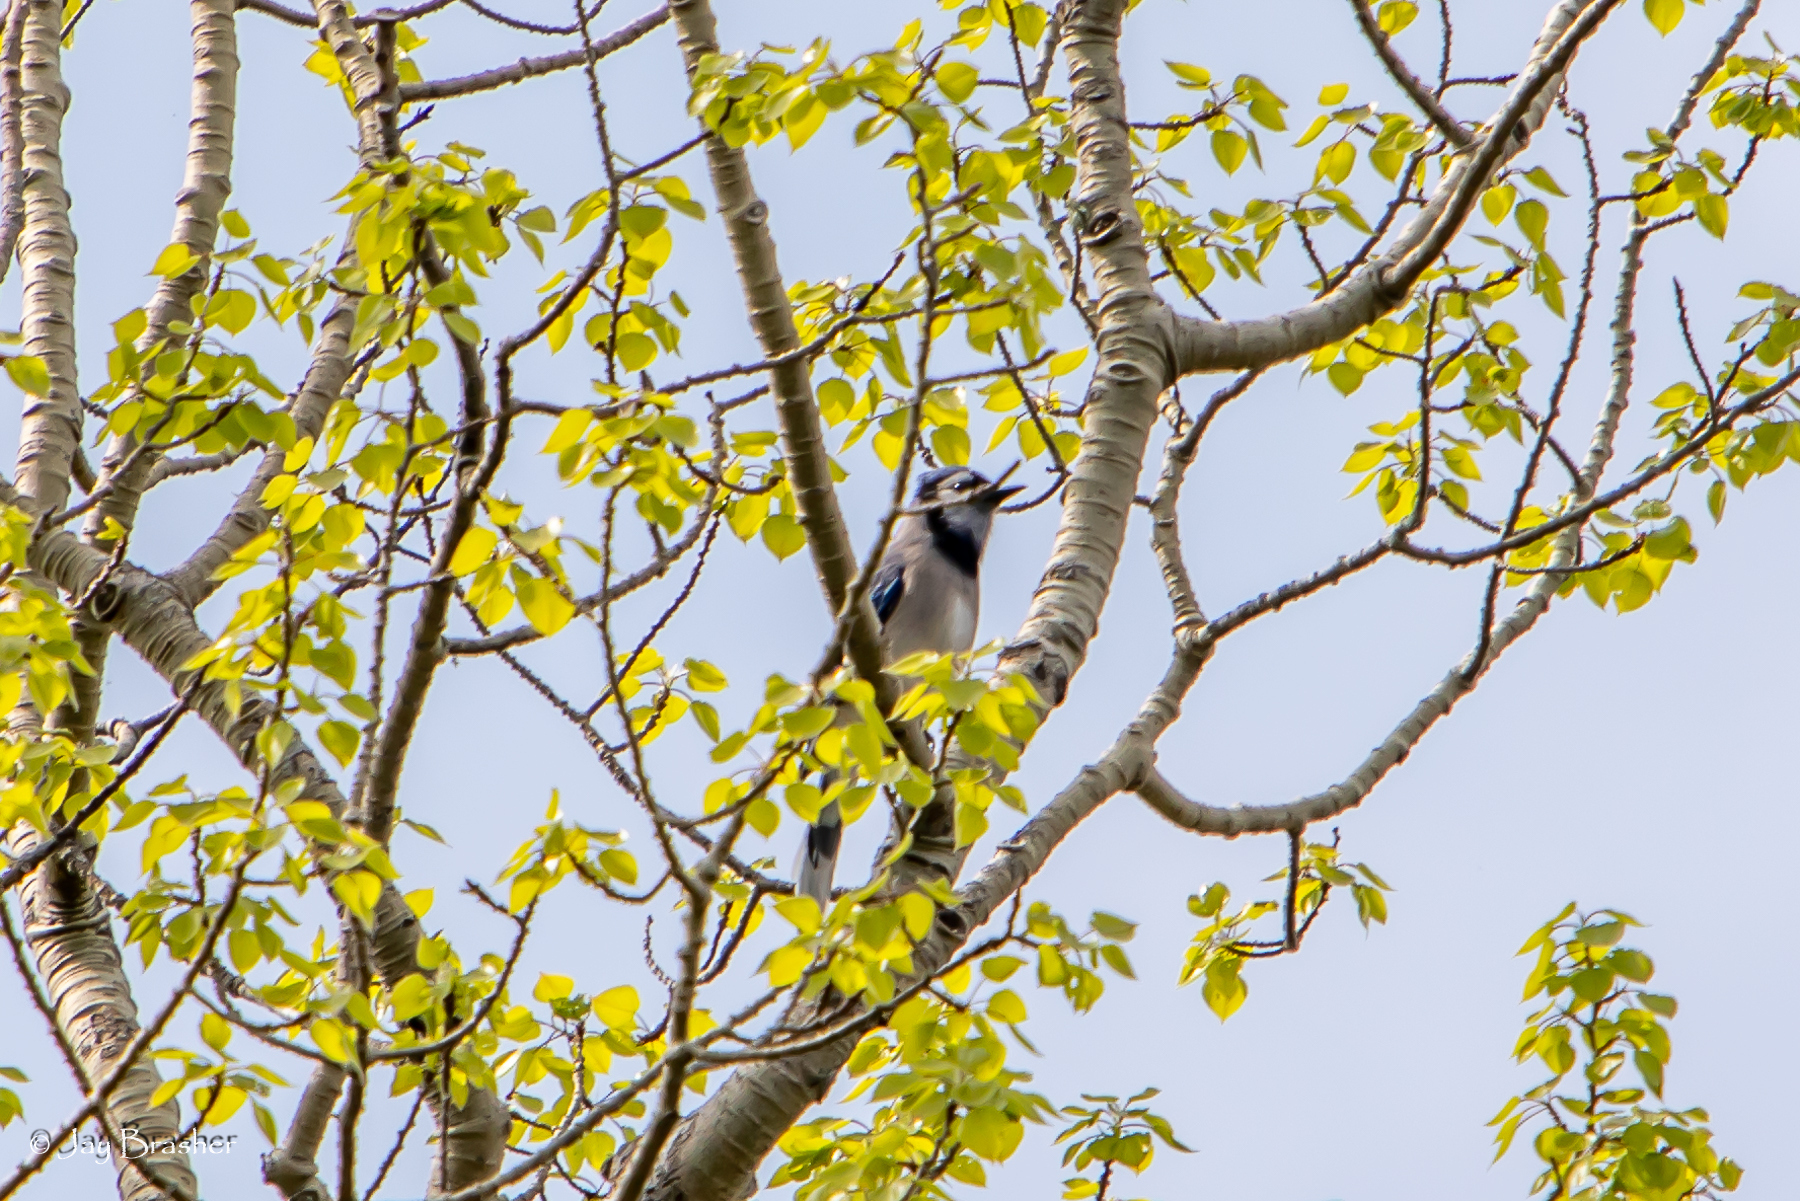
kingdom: Animalia
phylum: Chordata
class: Aves
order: Passeriformes
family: Corvidae
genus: Cyanocitta
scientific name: Cyanocitta cristata
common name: Blue jay
